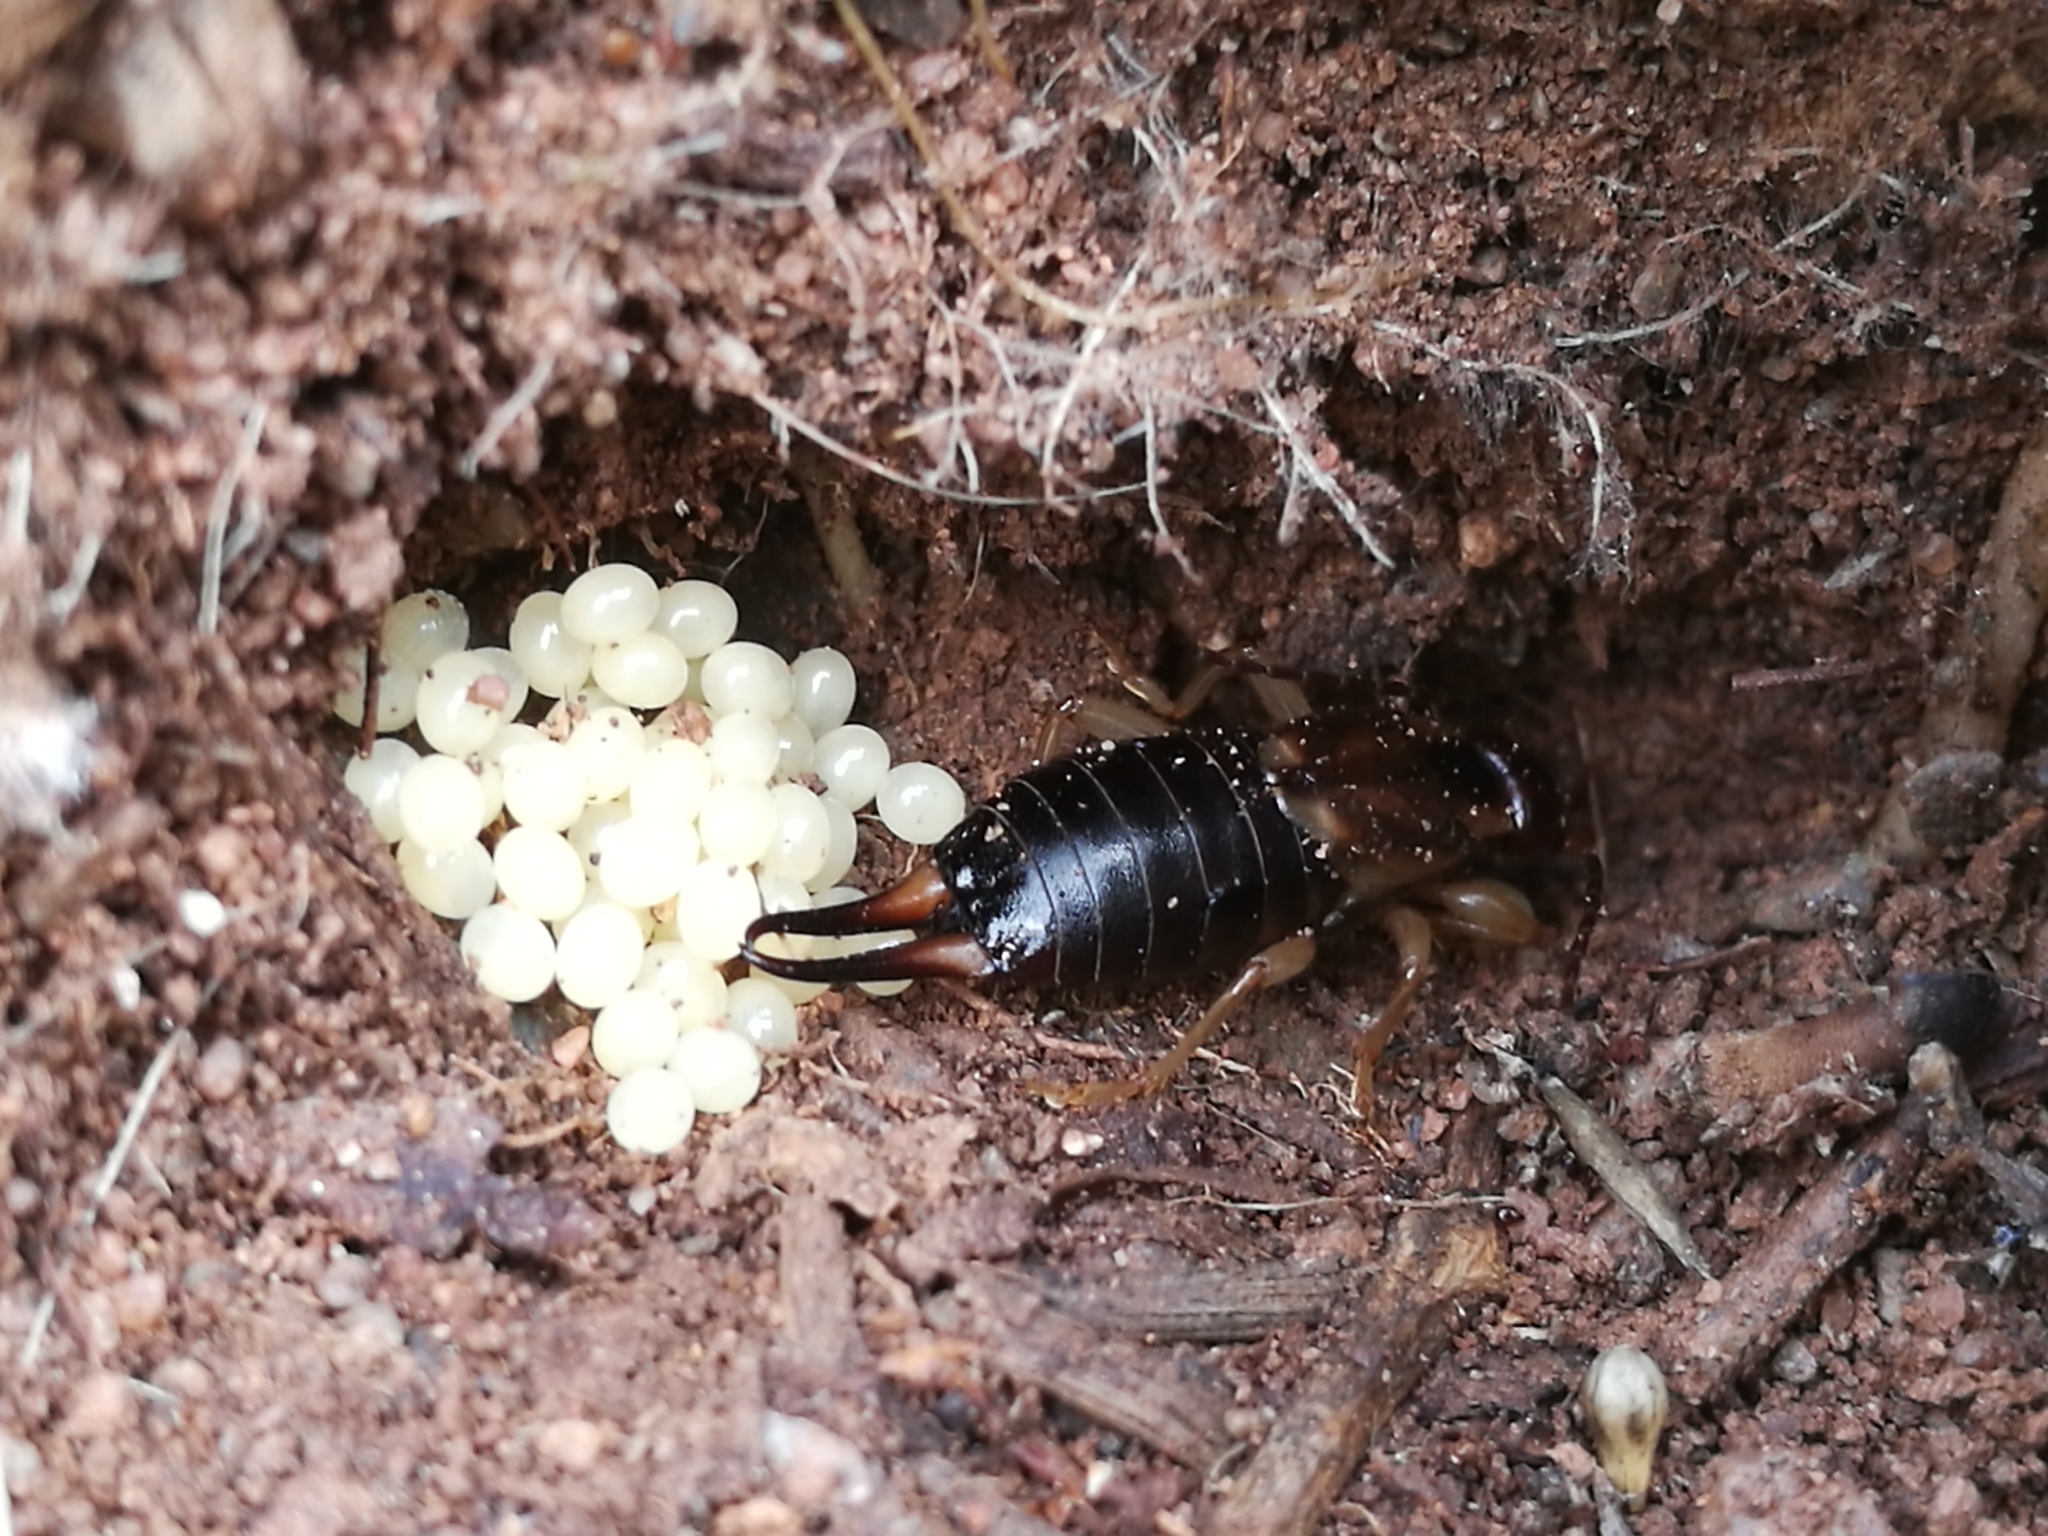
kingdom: Animalia
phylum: Arthropoda
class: Insecta
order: Dermaptera
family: Forficulidae
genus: Forficula
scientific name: Forficula
